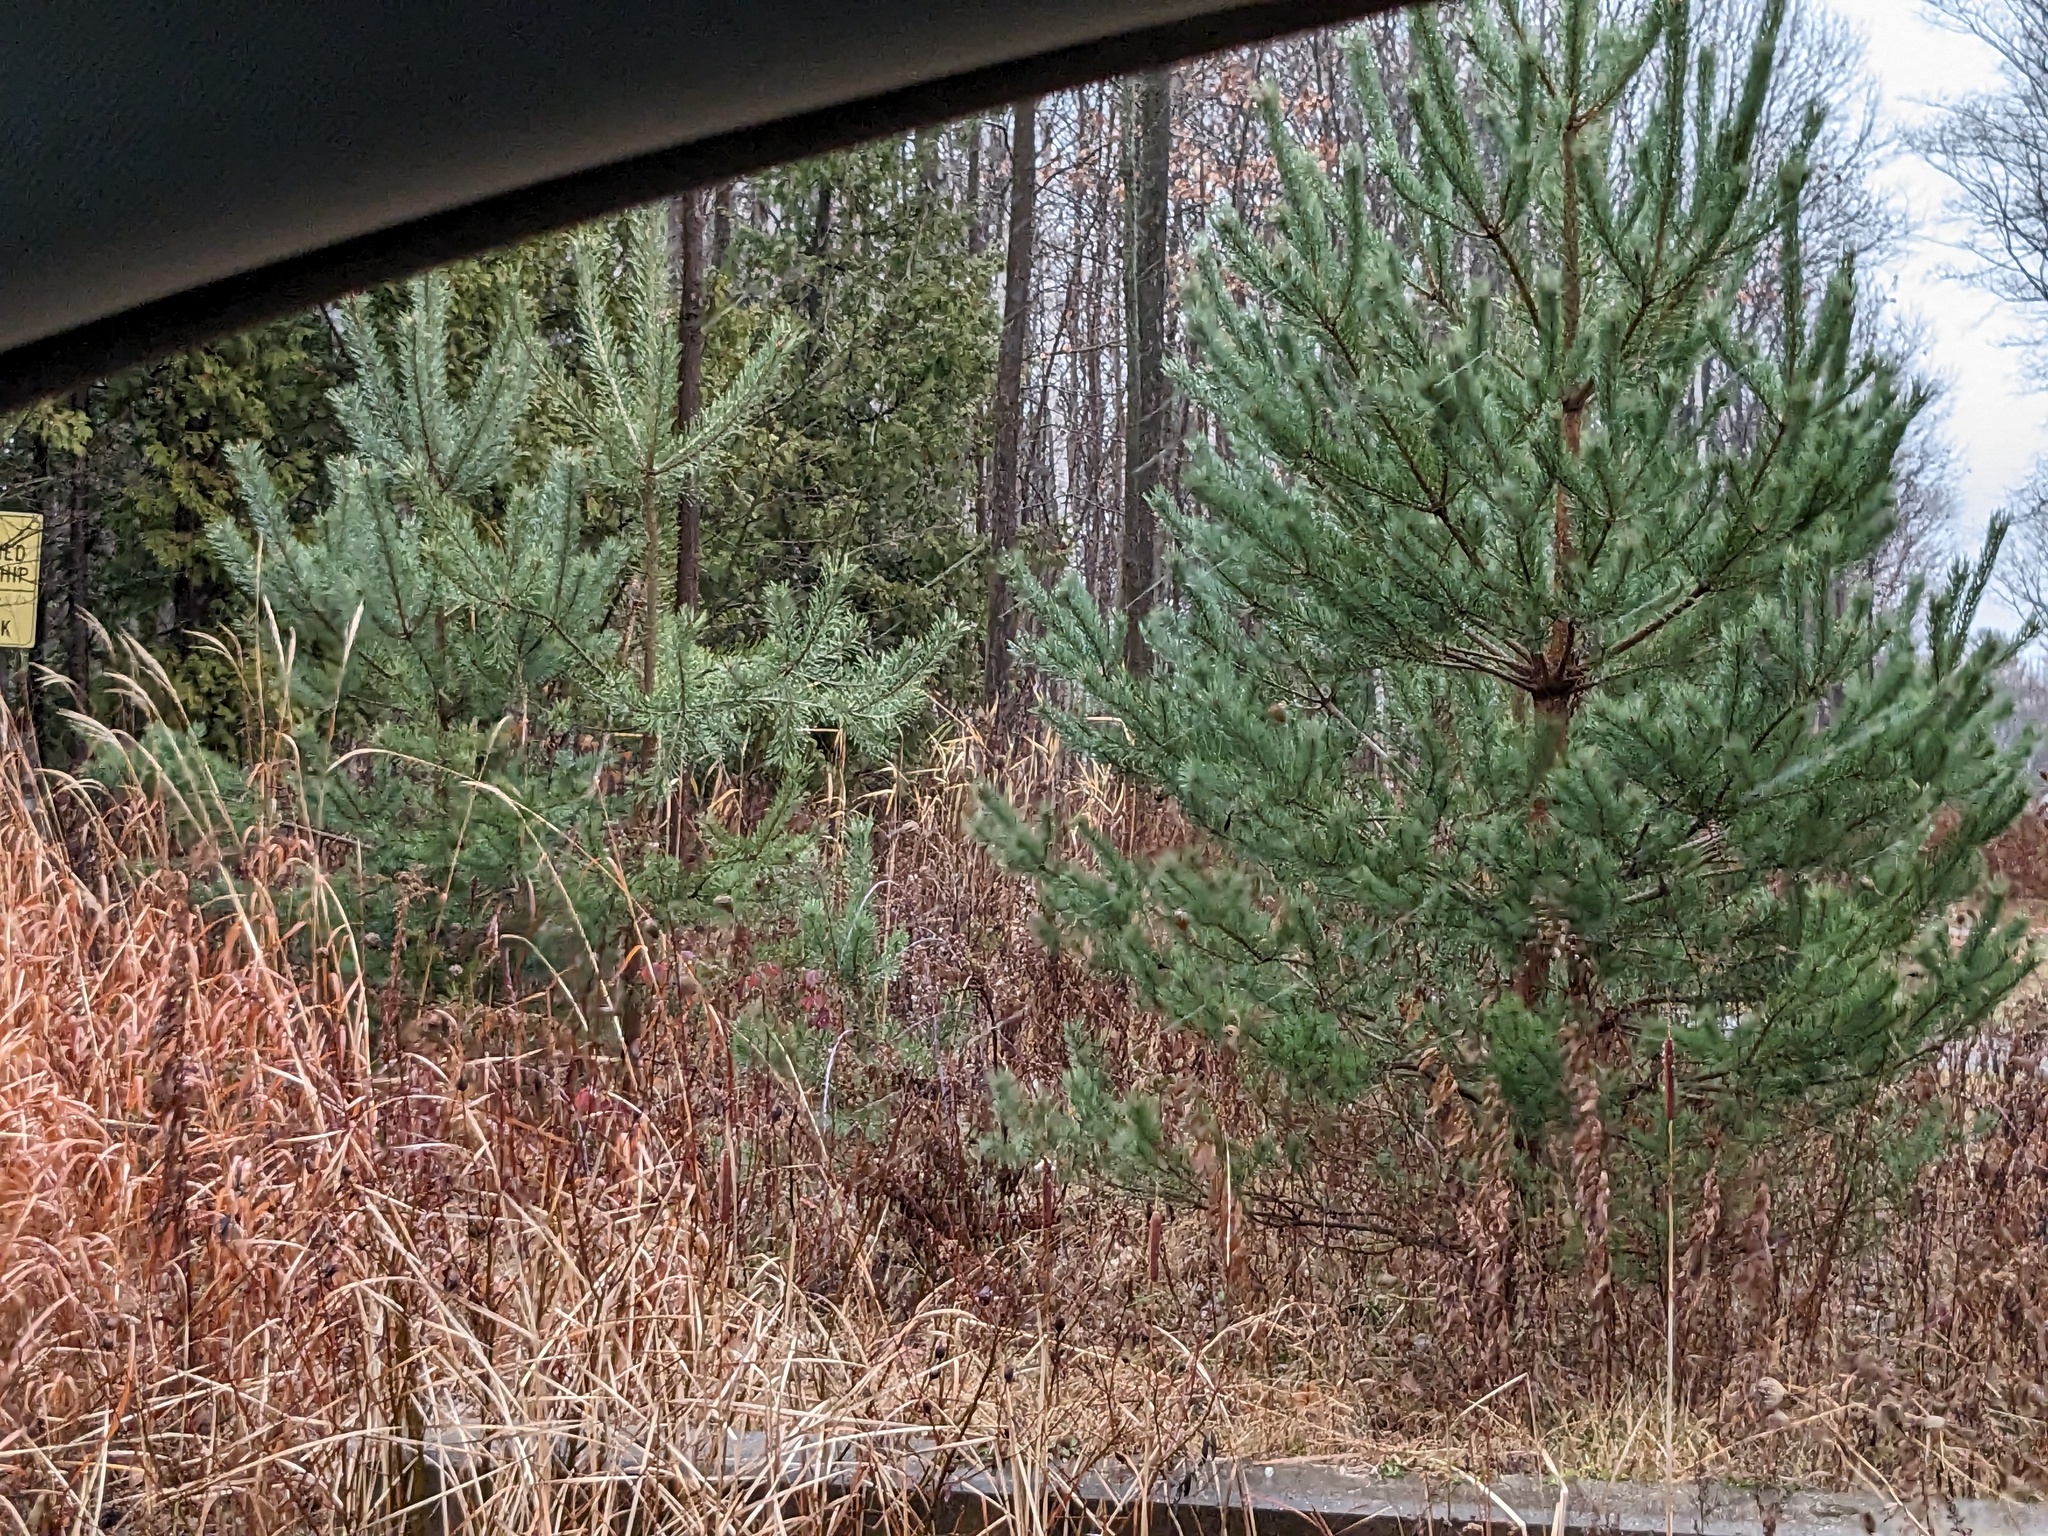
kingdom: Plantae
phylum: Tracheophyta
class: Liliopsida
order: Poales
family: Poaceae
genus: Phragmites
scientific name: Phragmites australis
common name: Common reed
